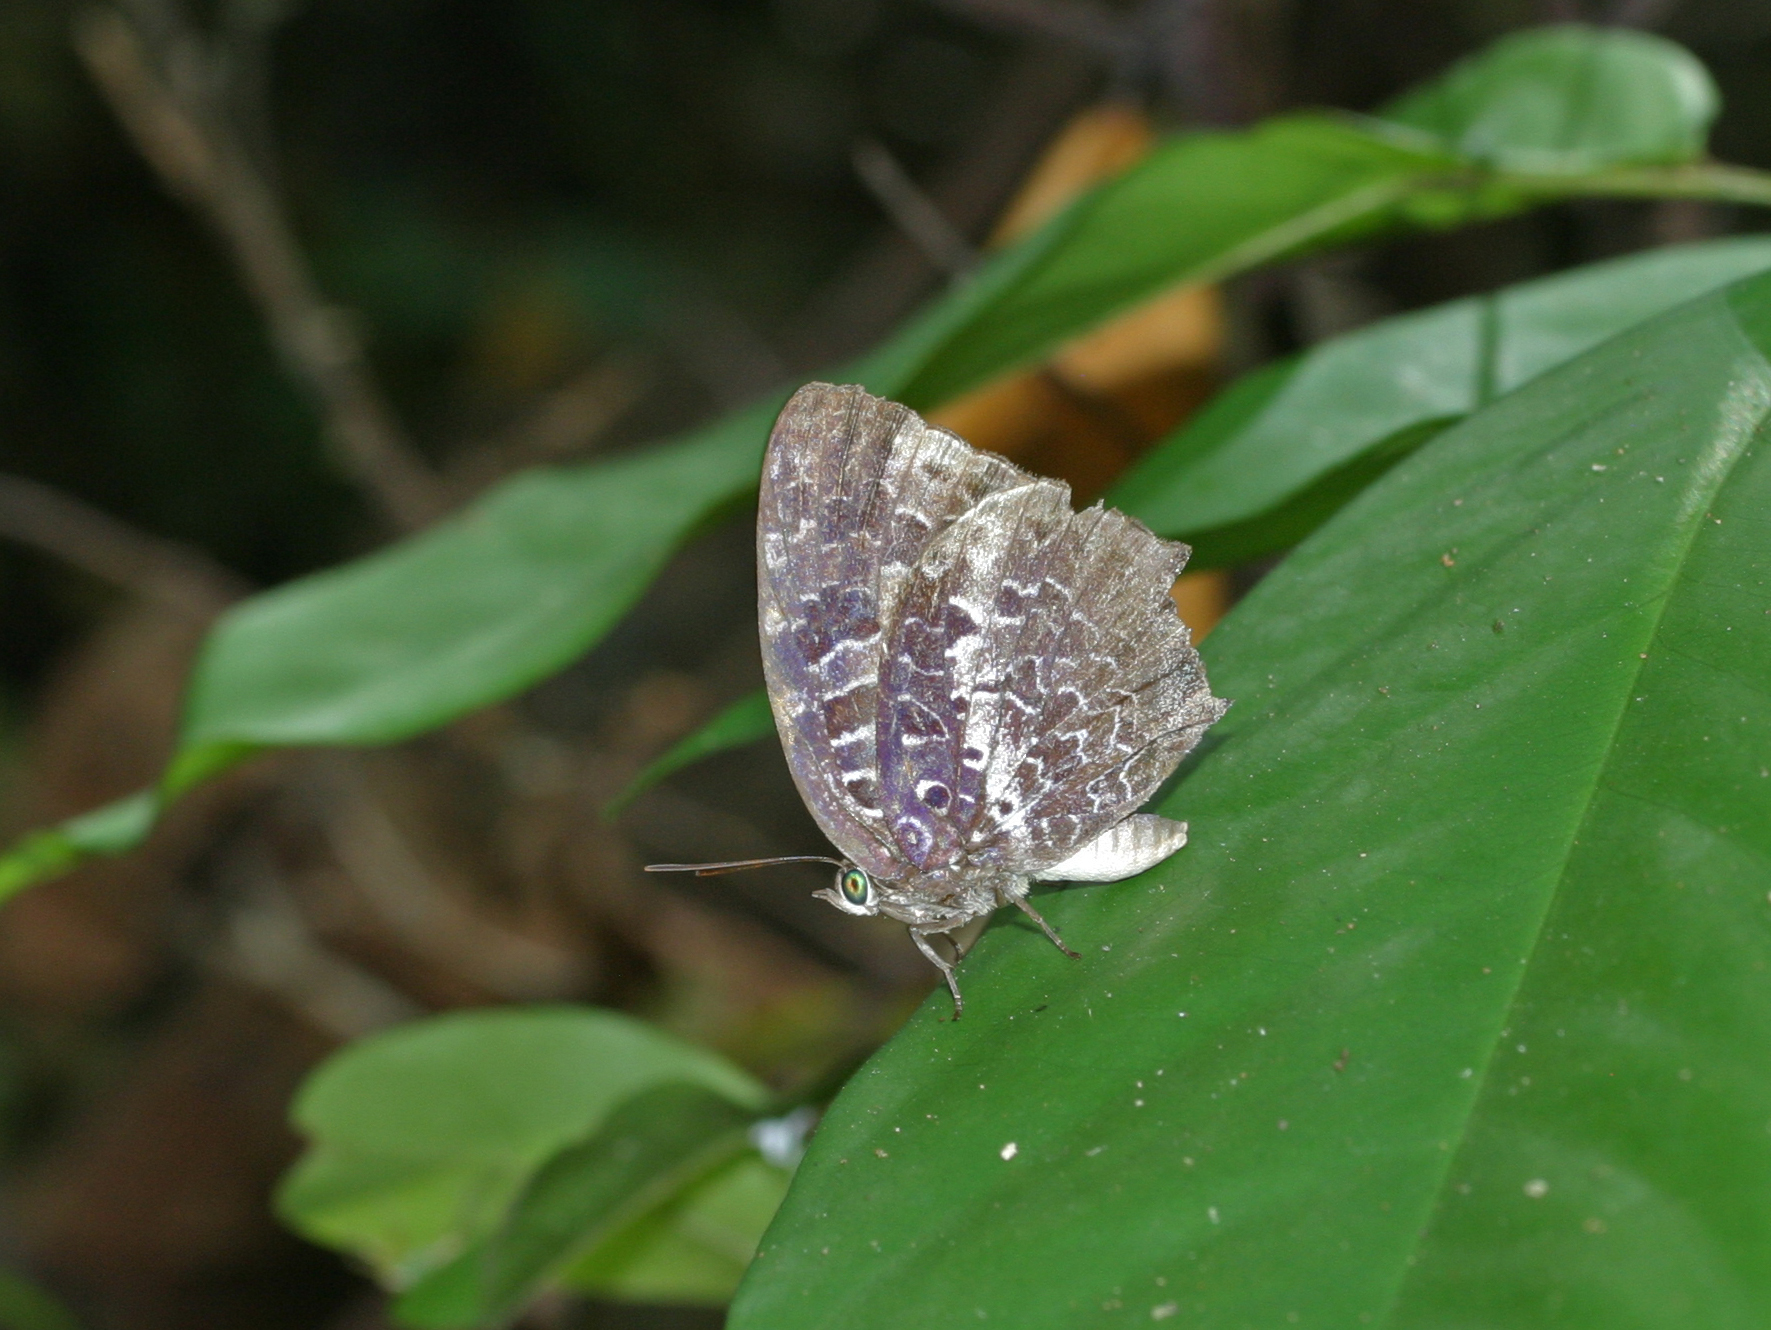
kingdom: Animalia
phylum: Arthropoda
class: Insecta
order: Lepidoptera
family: Lycaenidae
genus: Arhopala
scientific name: Arhopala ijauensis
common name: White-banded oakblue
